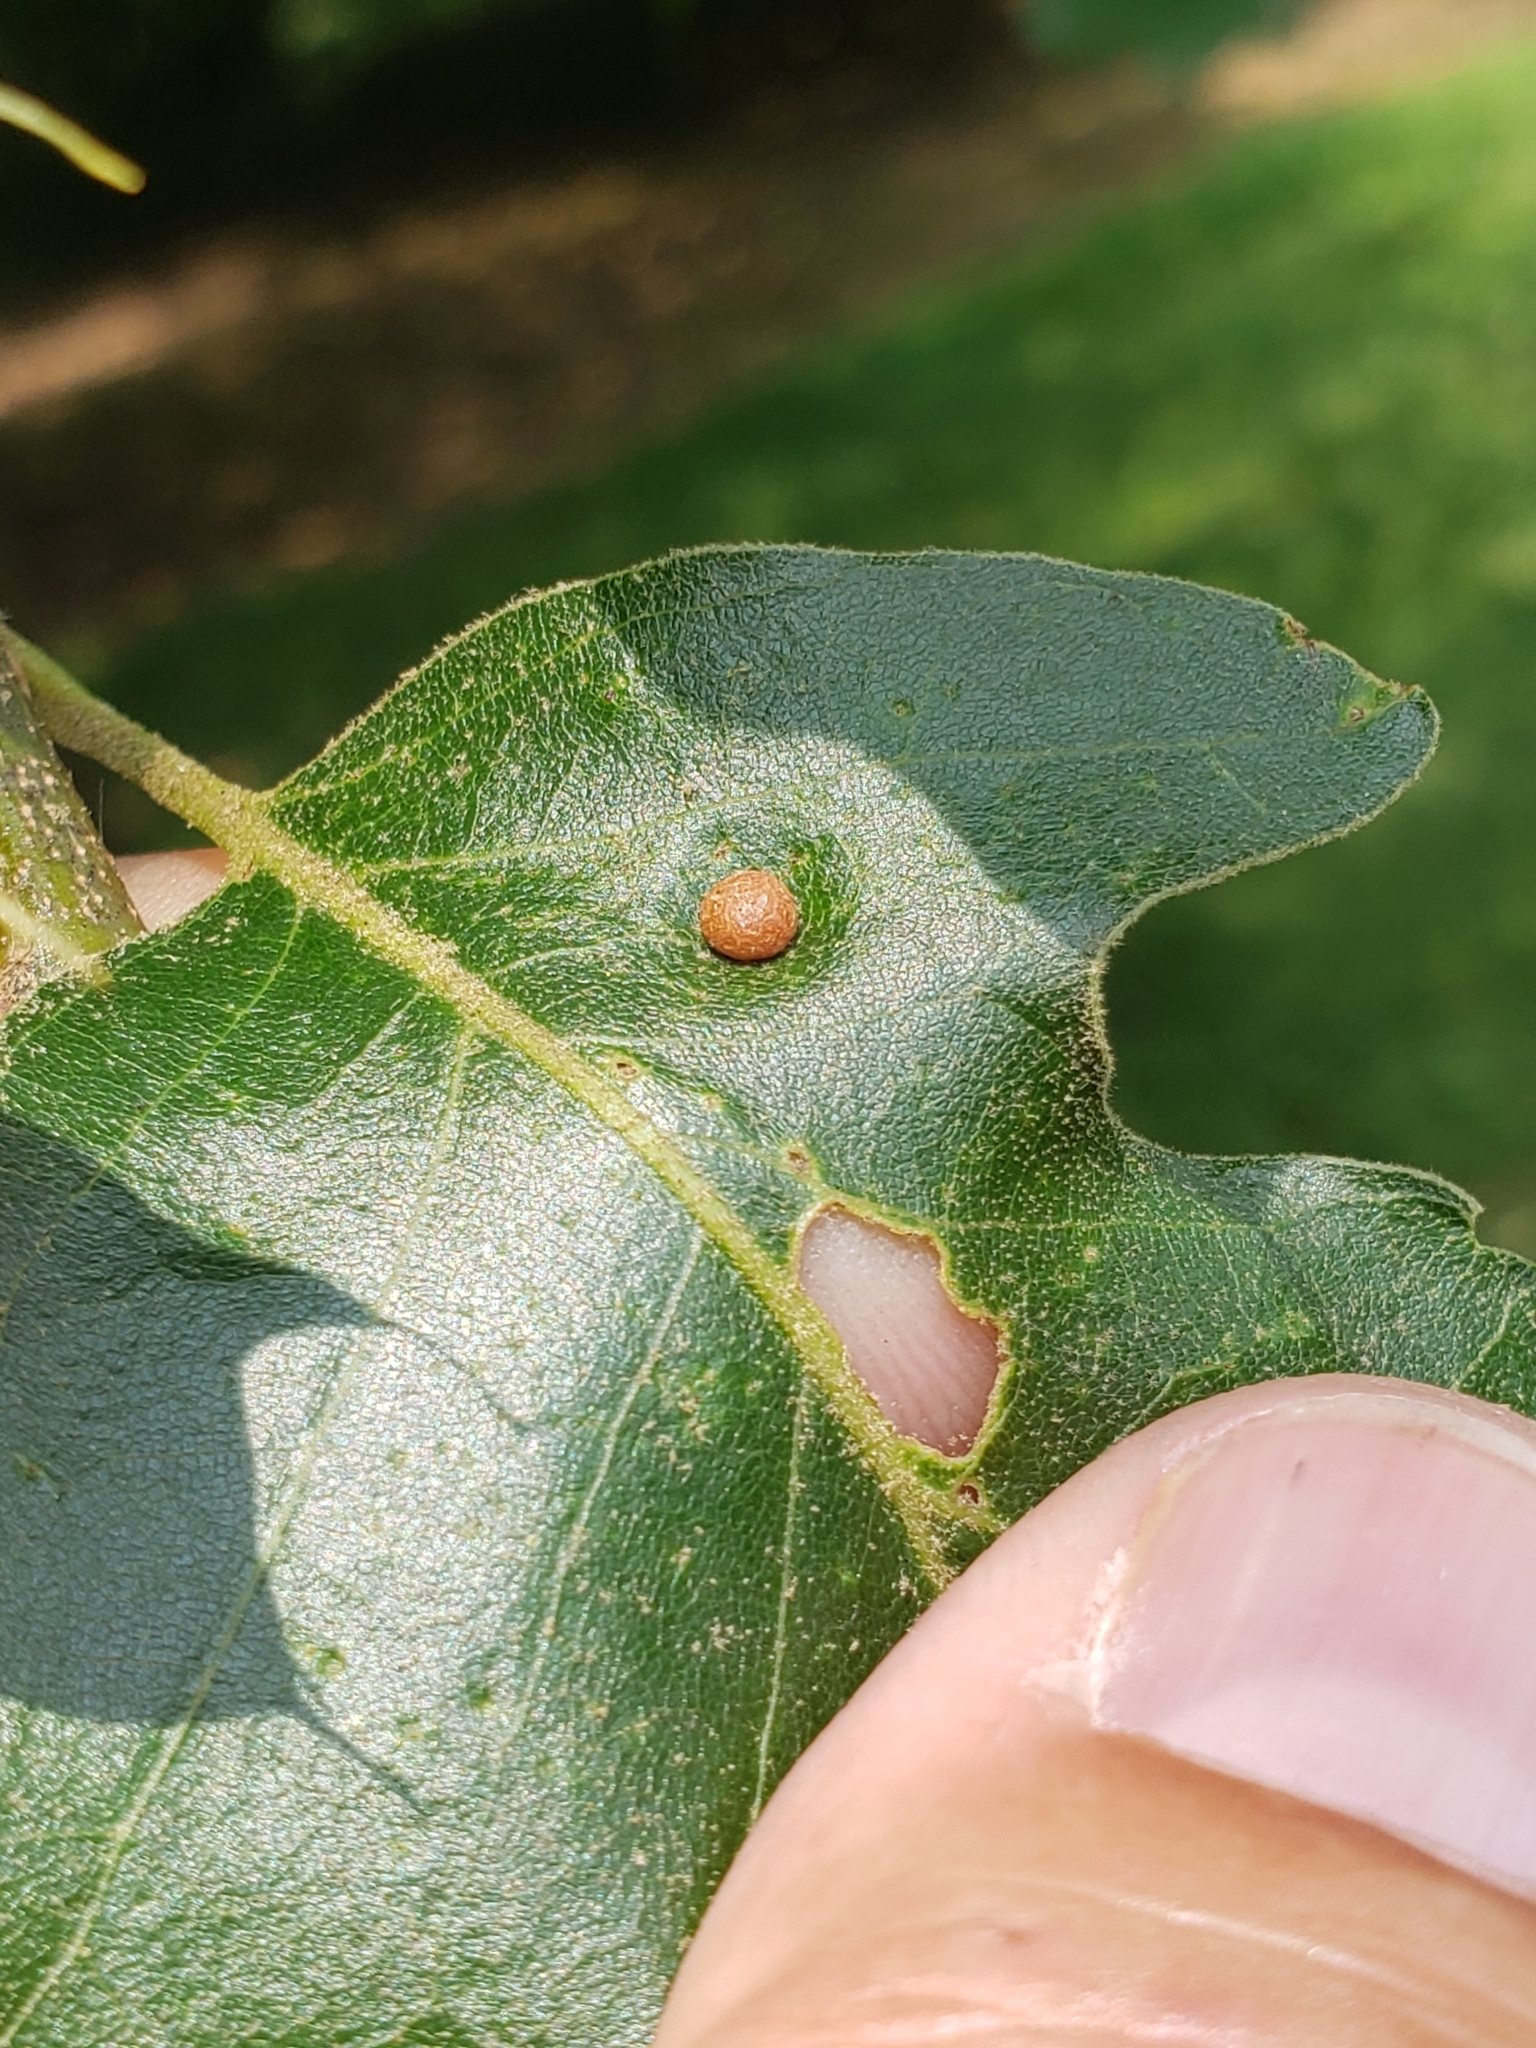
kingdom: Animalia
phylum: Arthropoda
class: Insecta
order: Diptera
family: Cecidomyiidae
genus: Polystepha
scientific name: Polystepha pilulae
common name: Oak leaf gall midge
